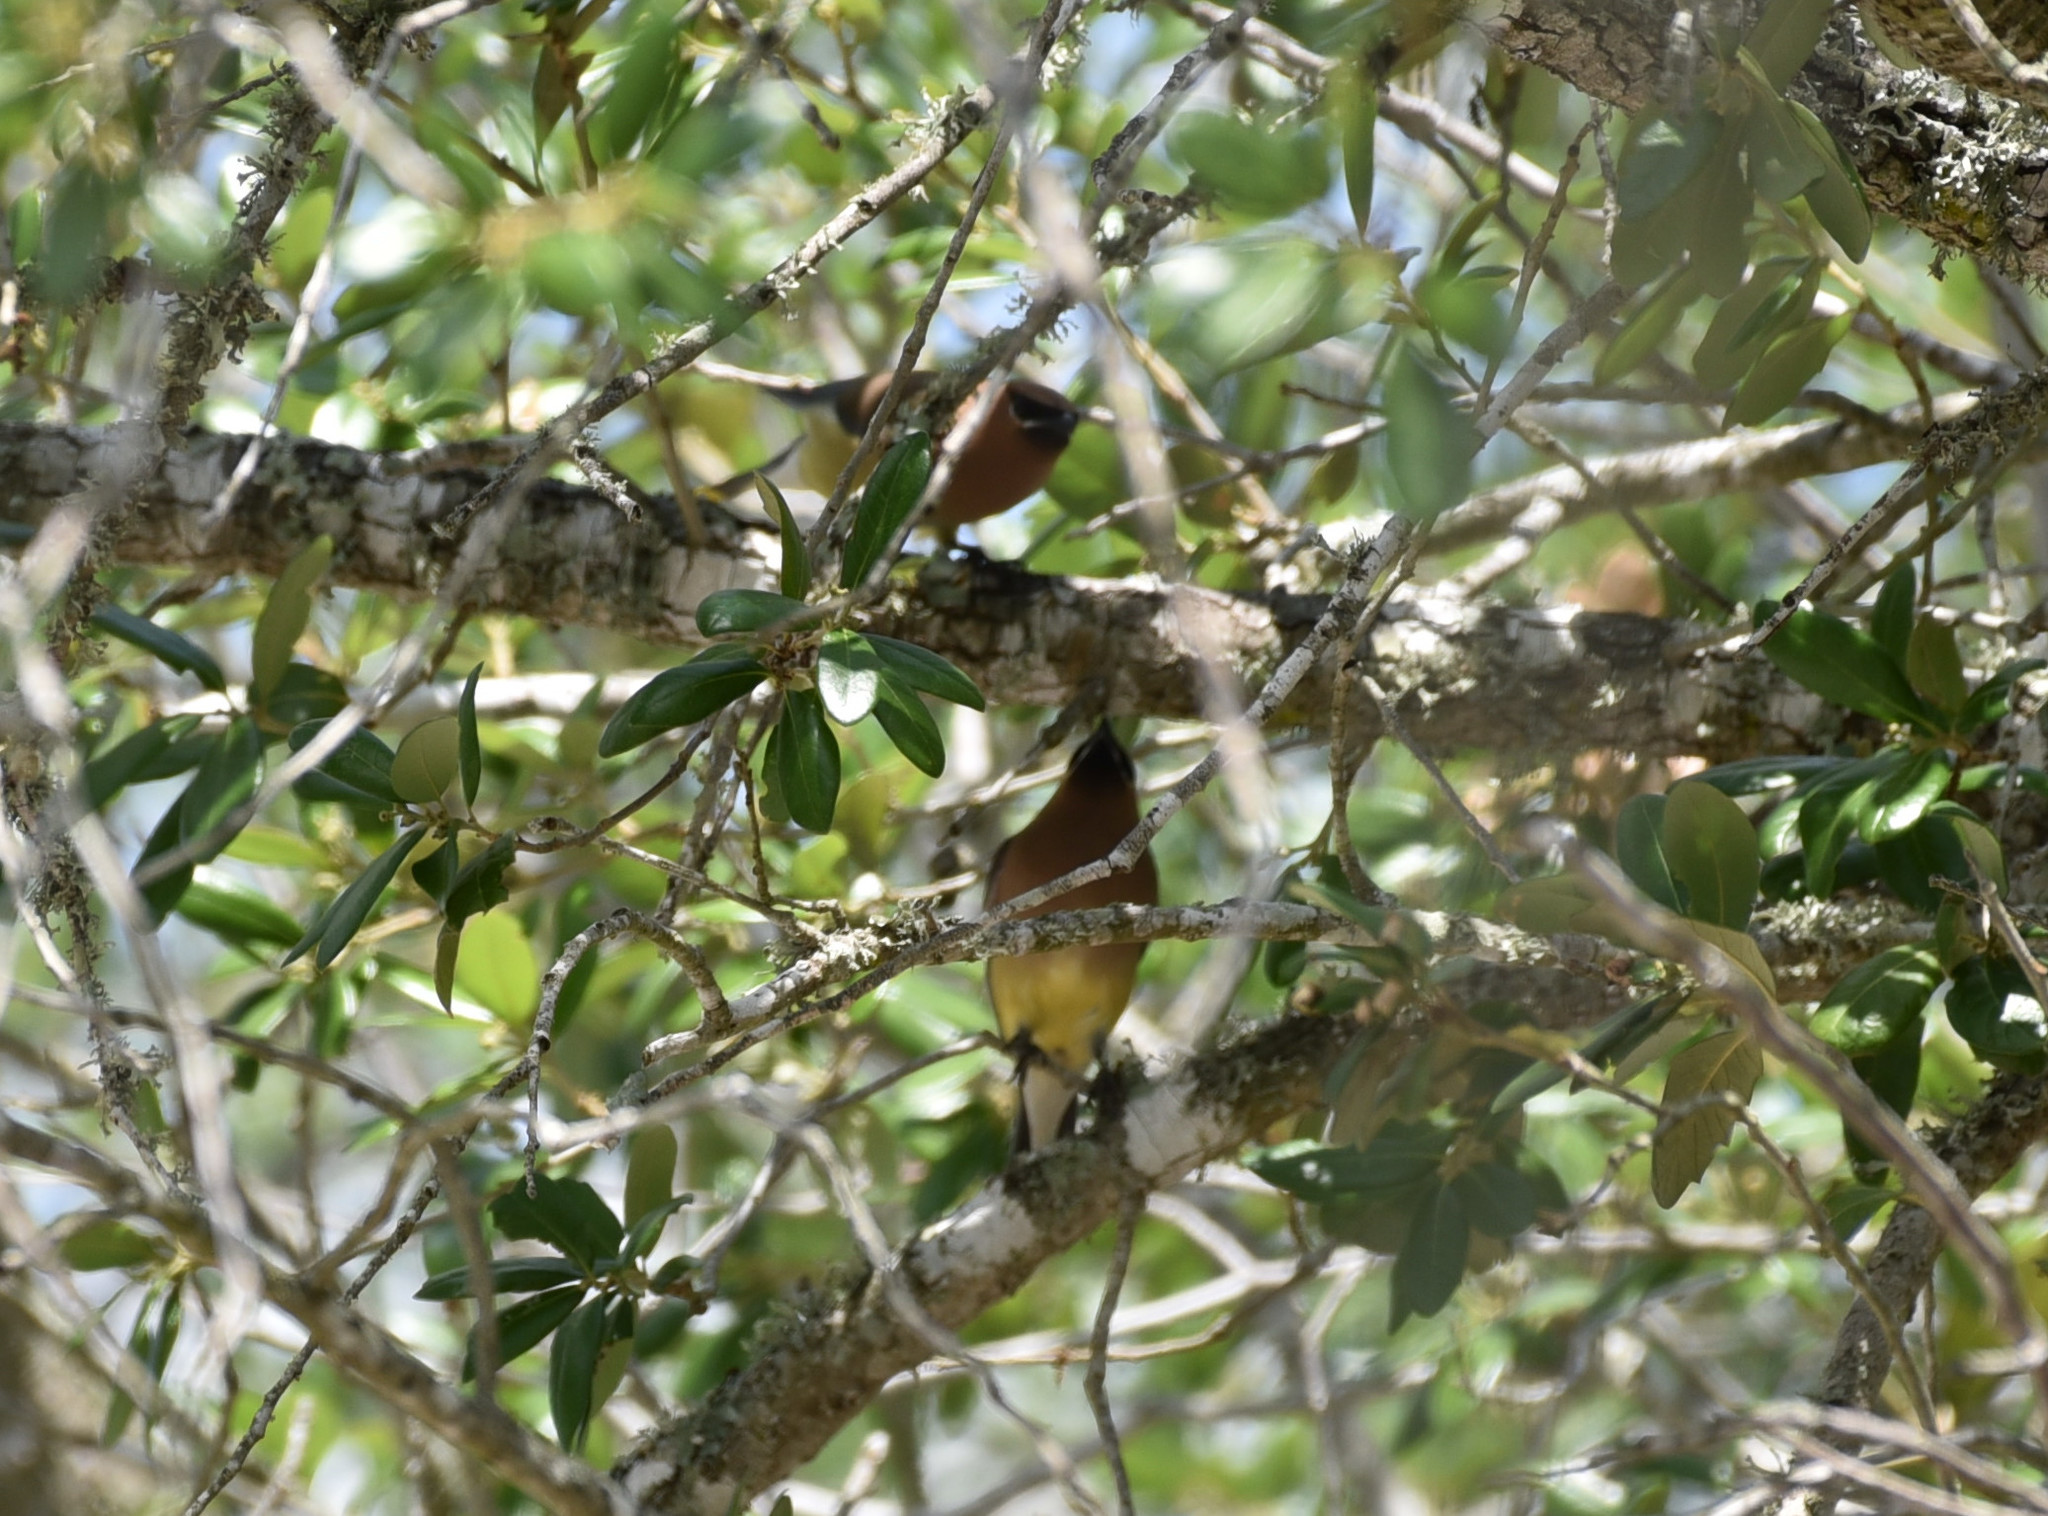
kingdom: Animalia
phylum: Chordata
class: Aves
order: Passeriformes
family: Bombycillidae
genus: Bombycilla
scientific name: Bombycilla cedrorum
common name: Cedar waxwing
